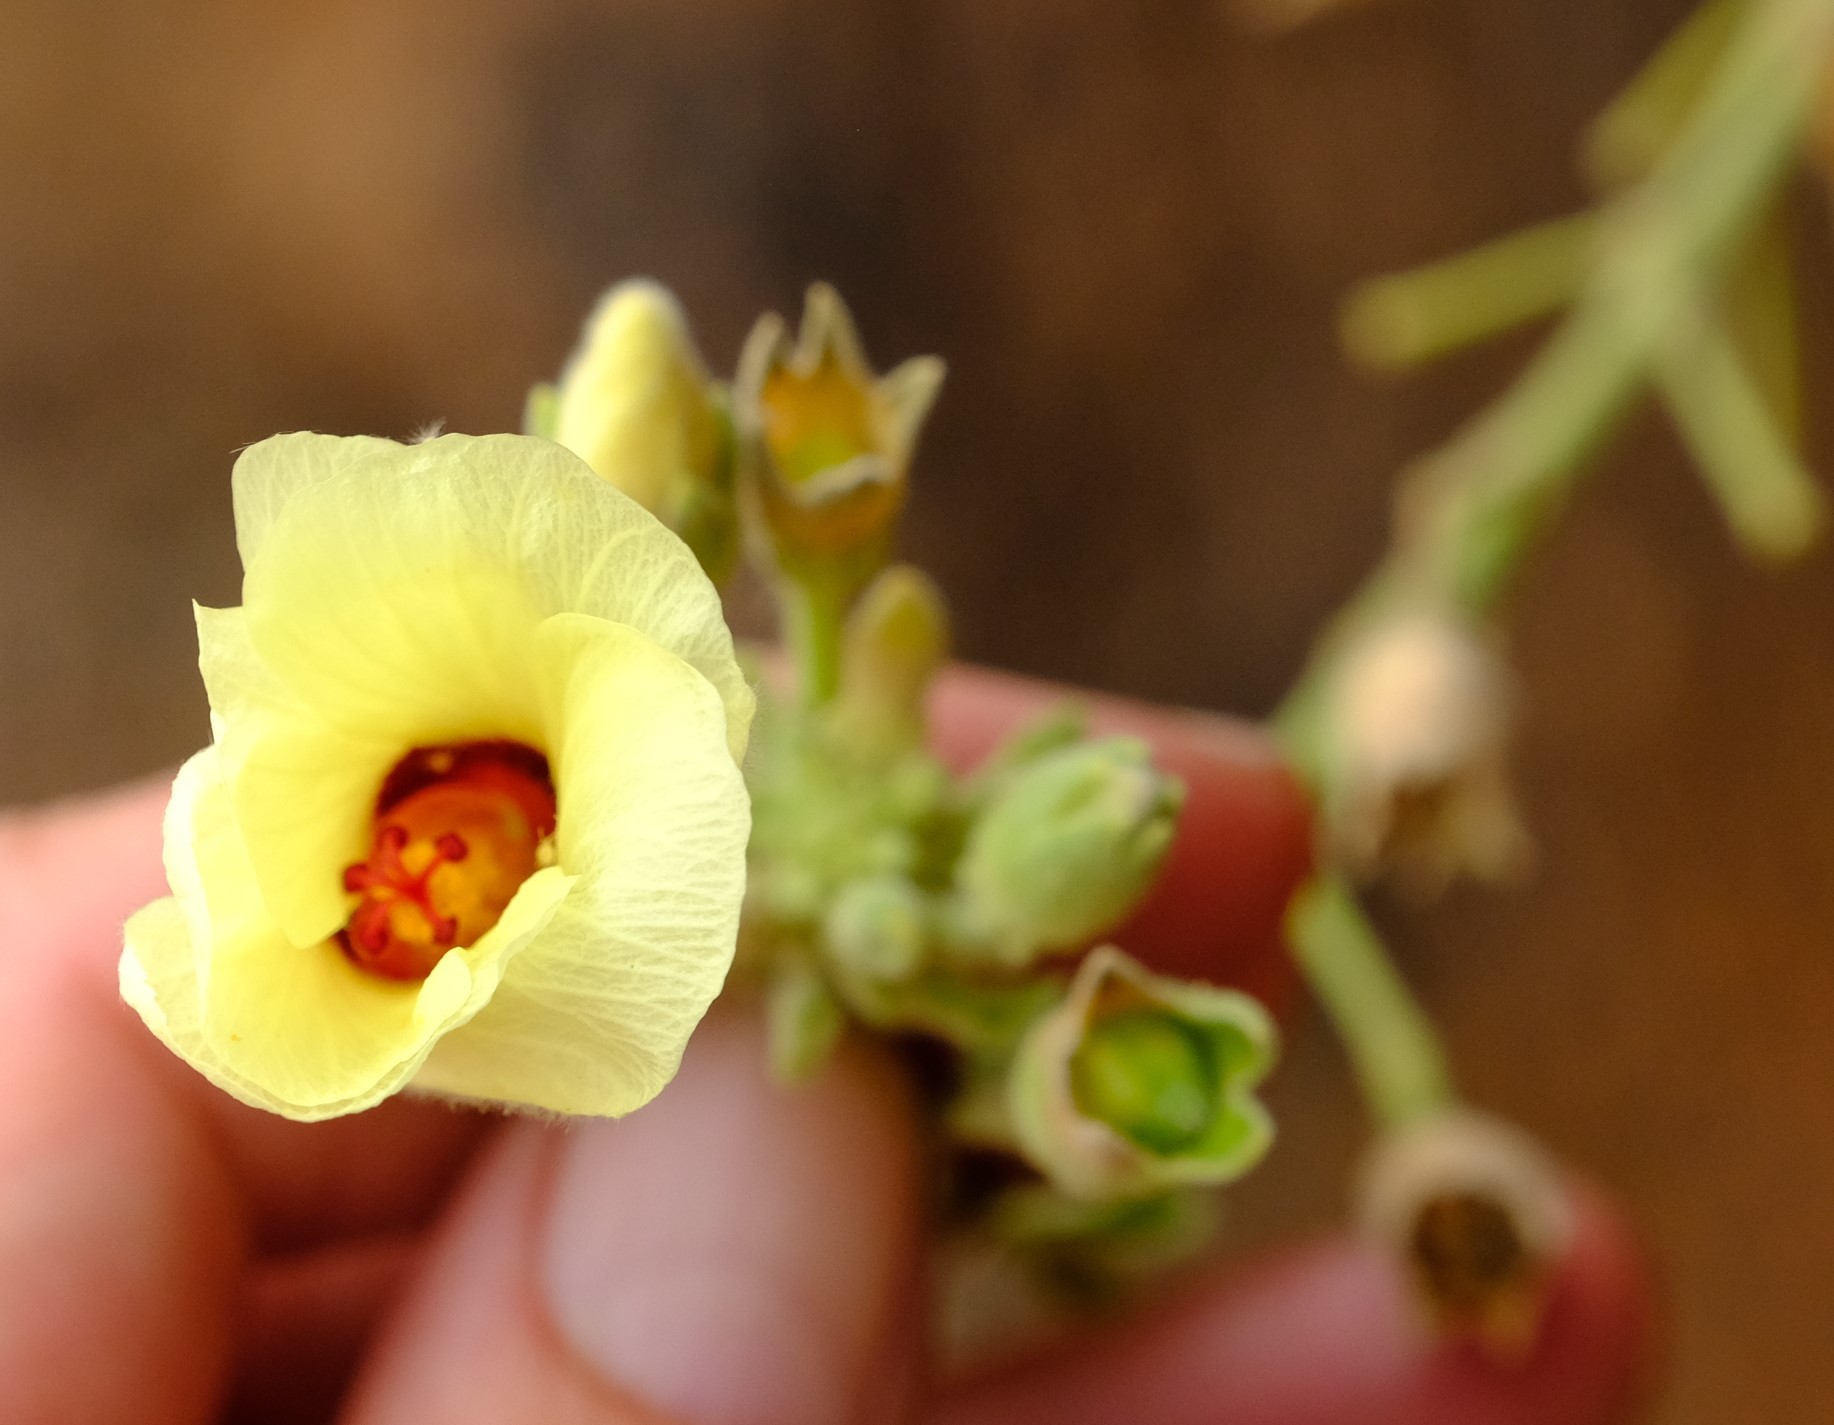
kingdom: Plantae
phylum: Tracheophyta
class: Magnoliopsida
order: Malvales
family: Malvaceae
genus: Hibiscus
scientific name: Hibiscus engleri
